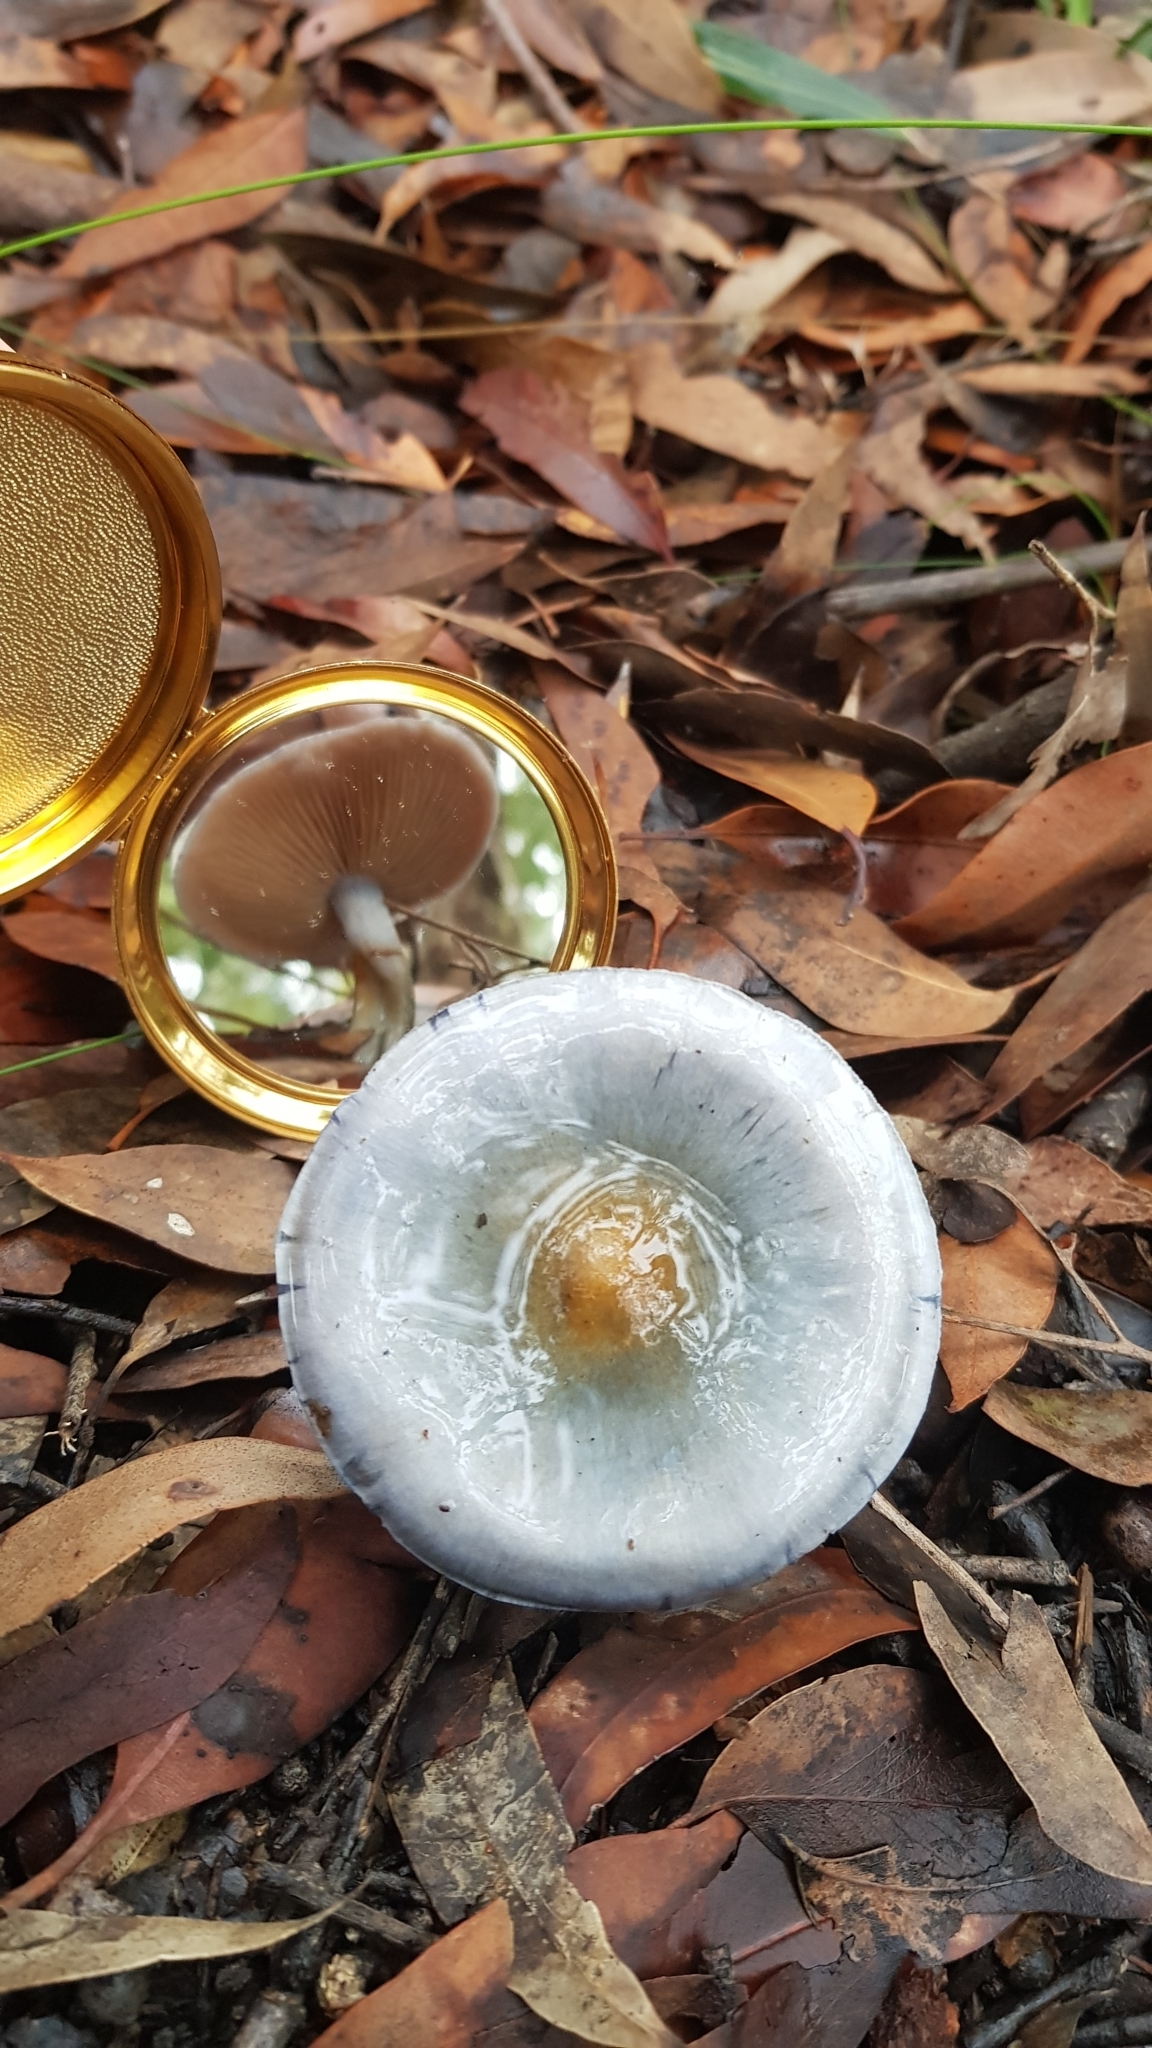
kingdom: Fungi
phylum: Basidiomycota
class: Agaricomycetes
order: Agaricales
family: Cortinariaceae
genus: Cortinarius
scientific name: Cortinarius rotundisporus
